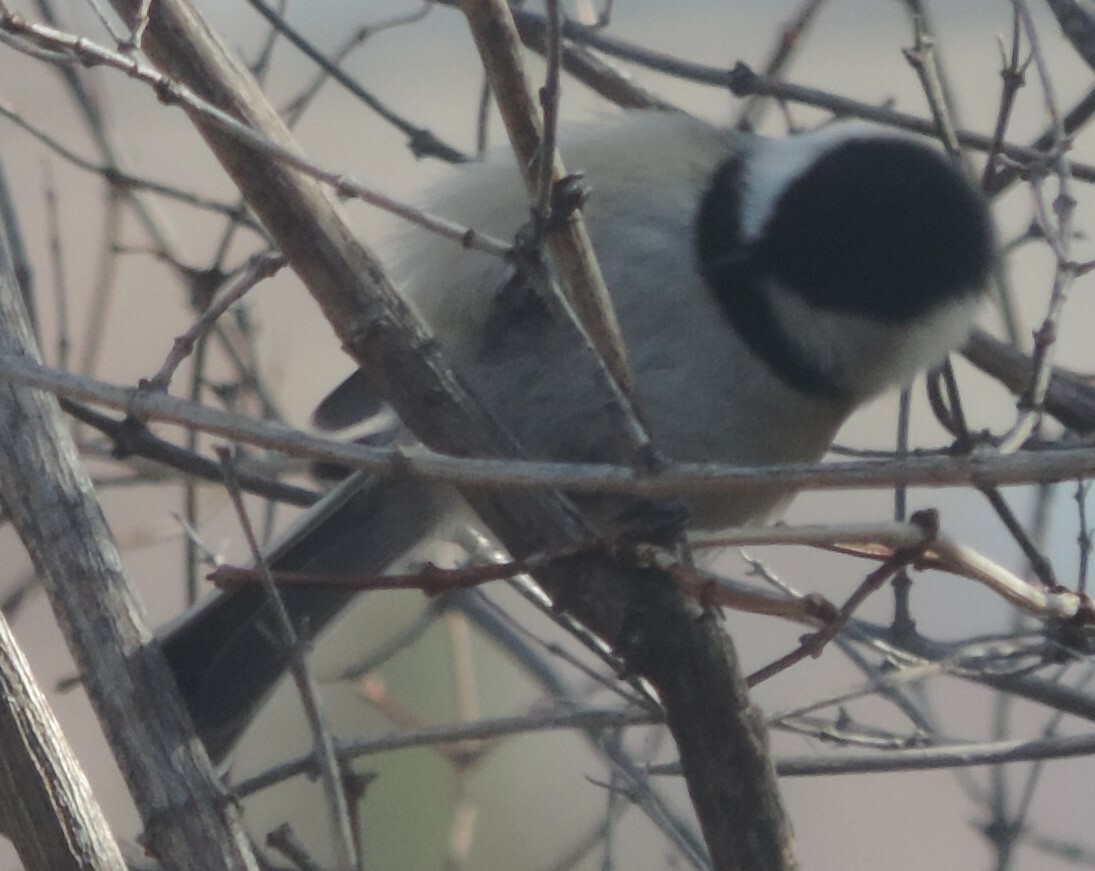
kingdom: Animalia
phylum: Chordata
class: Aves
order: Passeriformes
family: Paridae
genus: Poecile
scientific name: Poecile atricapillus
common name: Black-capped chickadee
